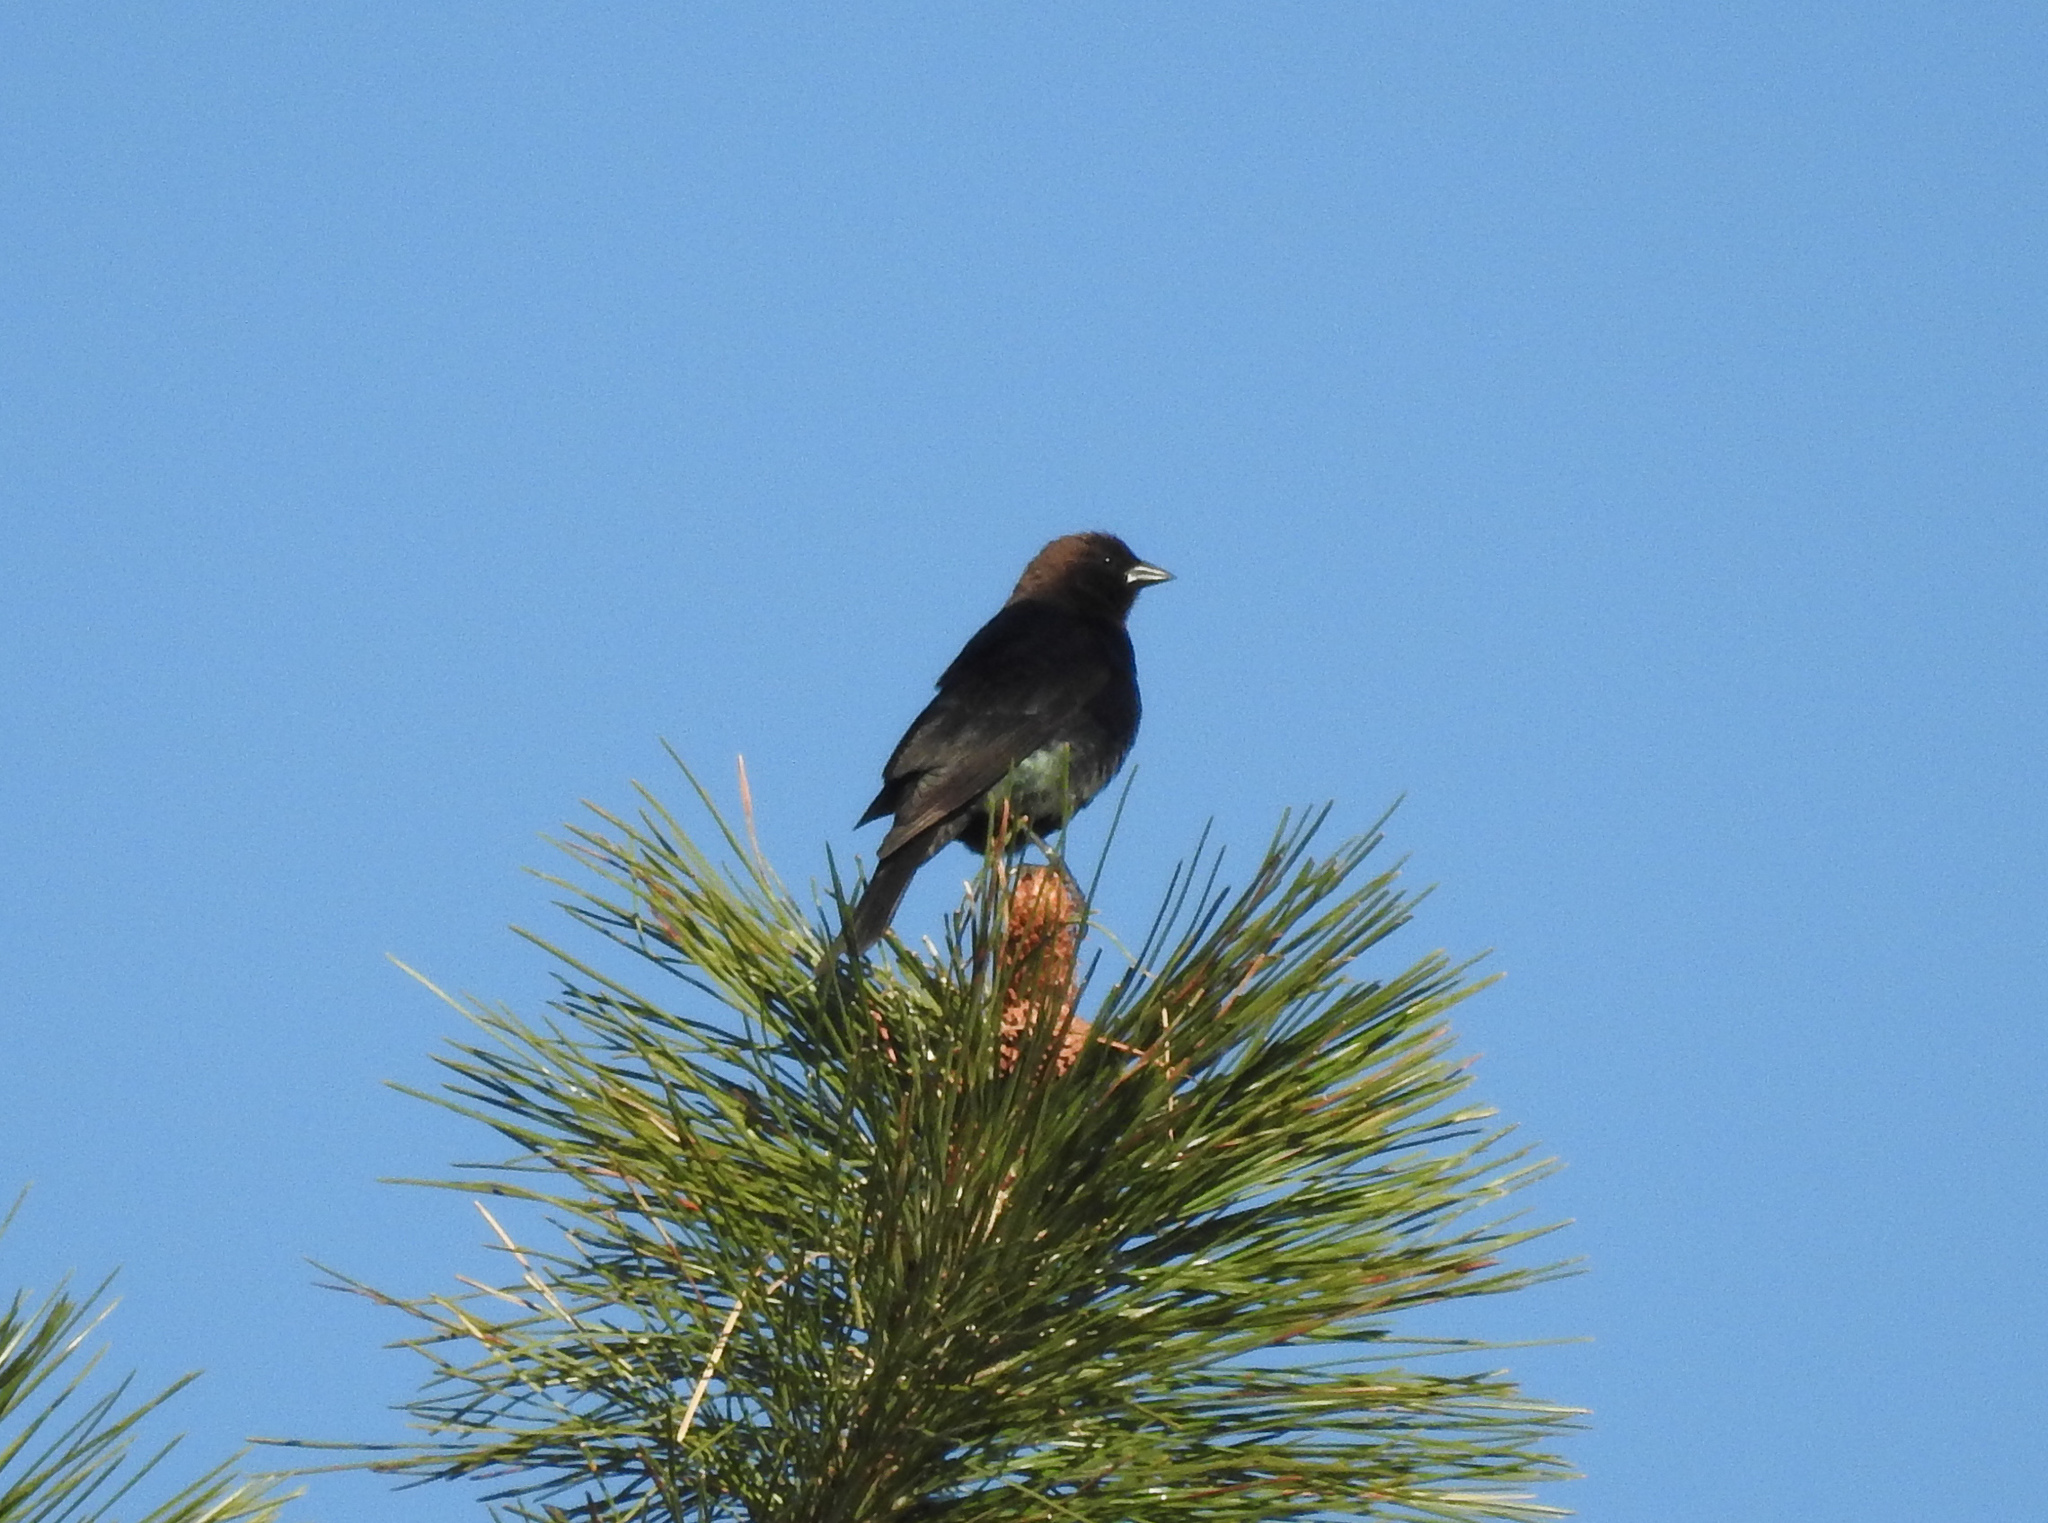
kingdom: Animalia
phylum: Chordata
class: Aves
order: Passeriformes
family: Icteridae
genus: Molothrus
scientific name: Molothrus ater
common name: Brown-headed cowbird
